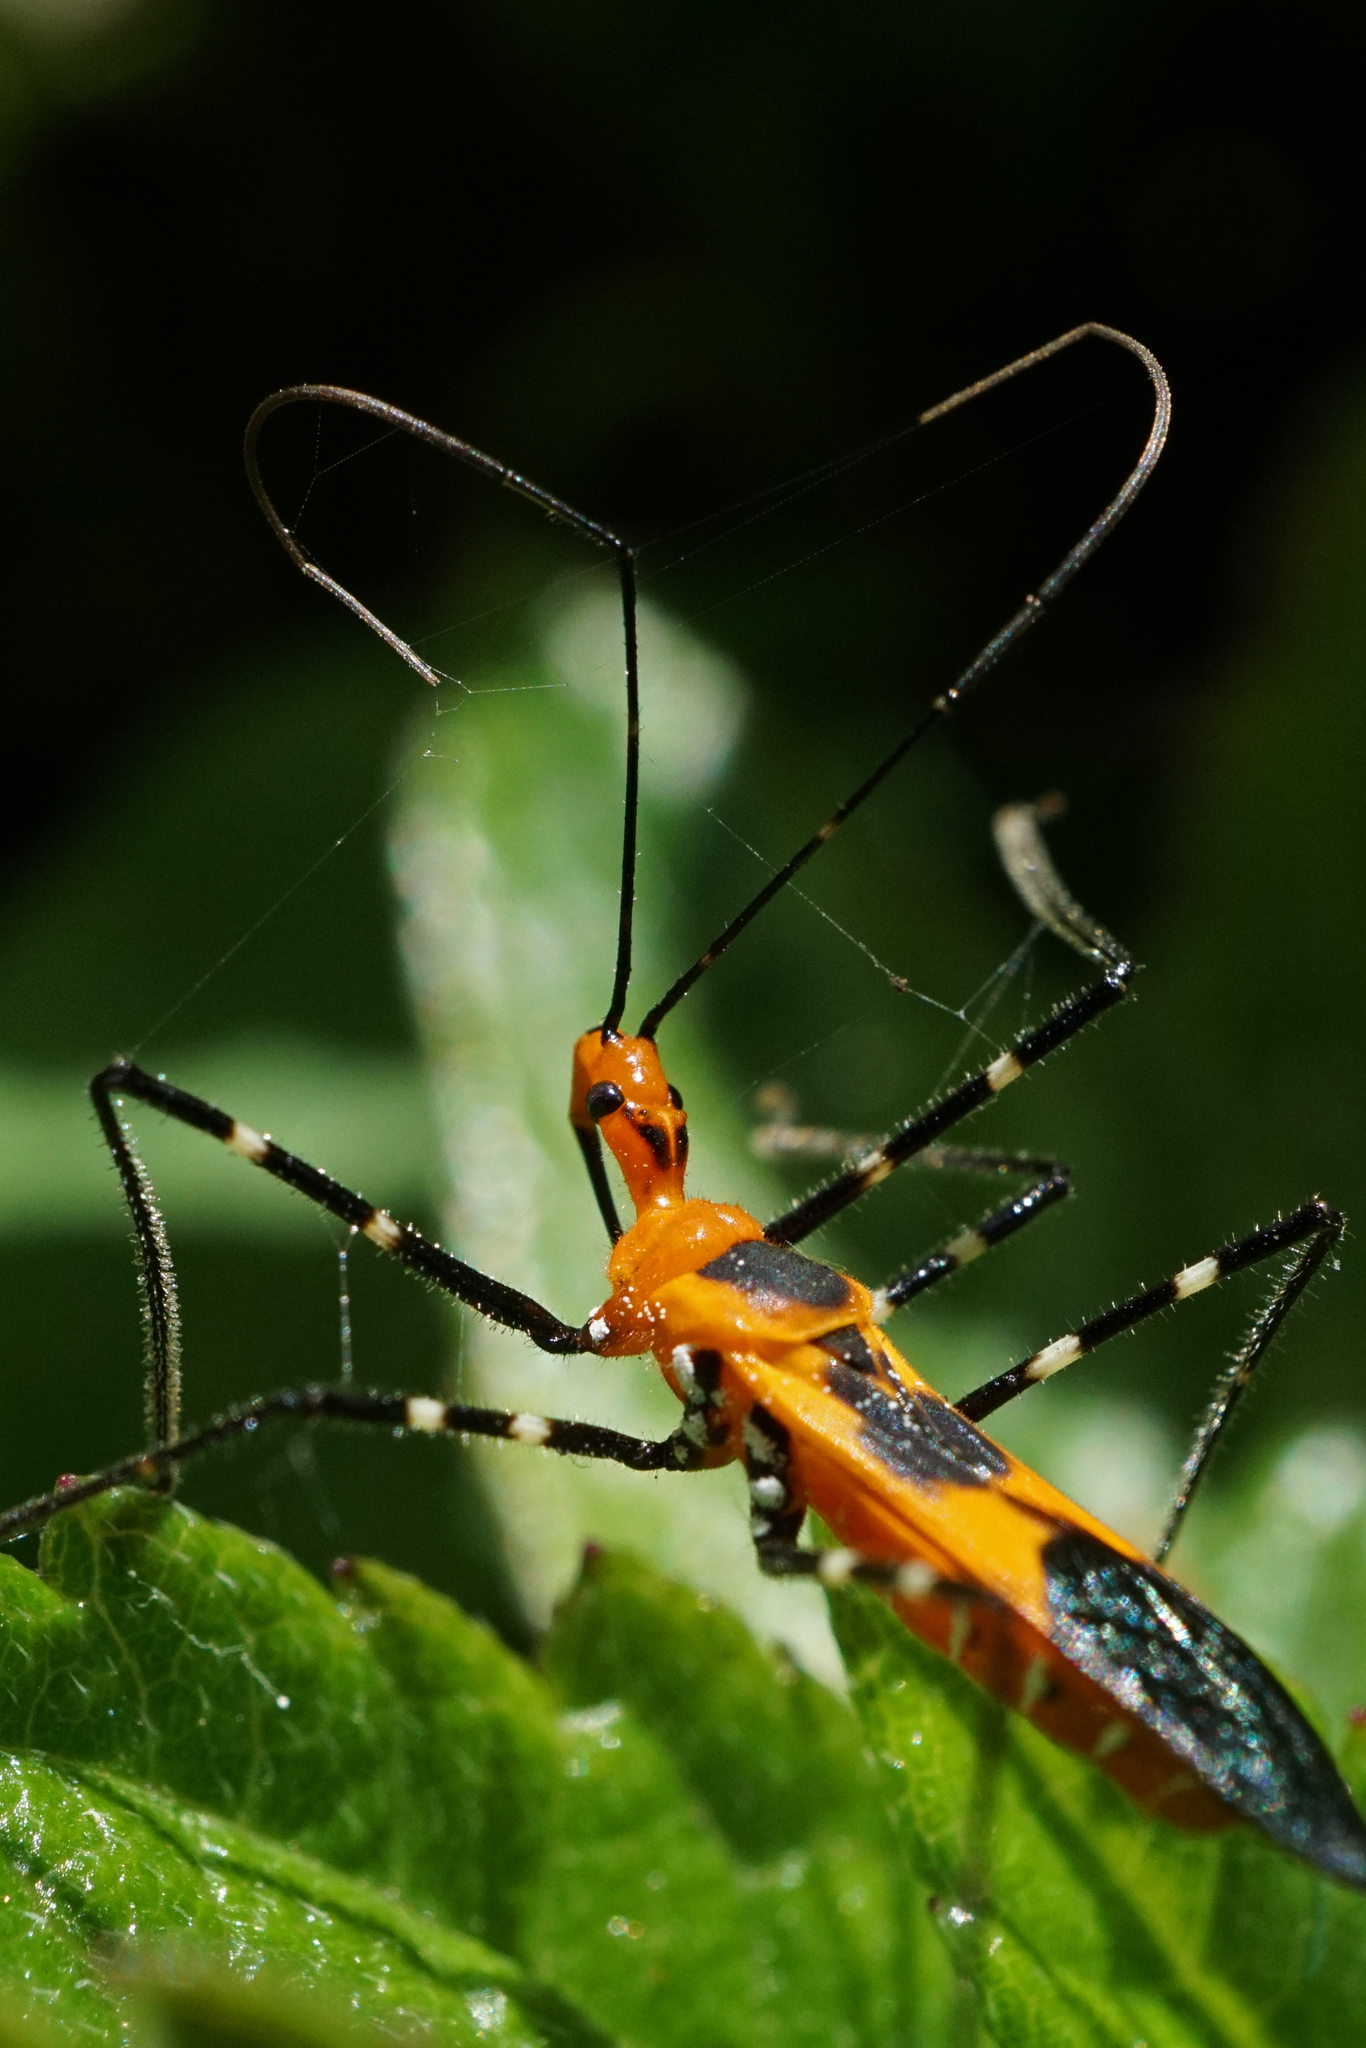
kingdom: Animalia
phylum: Arthropoda
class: Insecta
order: Hemiptera
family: Reduviidae
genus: Zelus
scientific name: Zelus longipes
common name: Milkweed assassin bug
